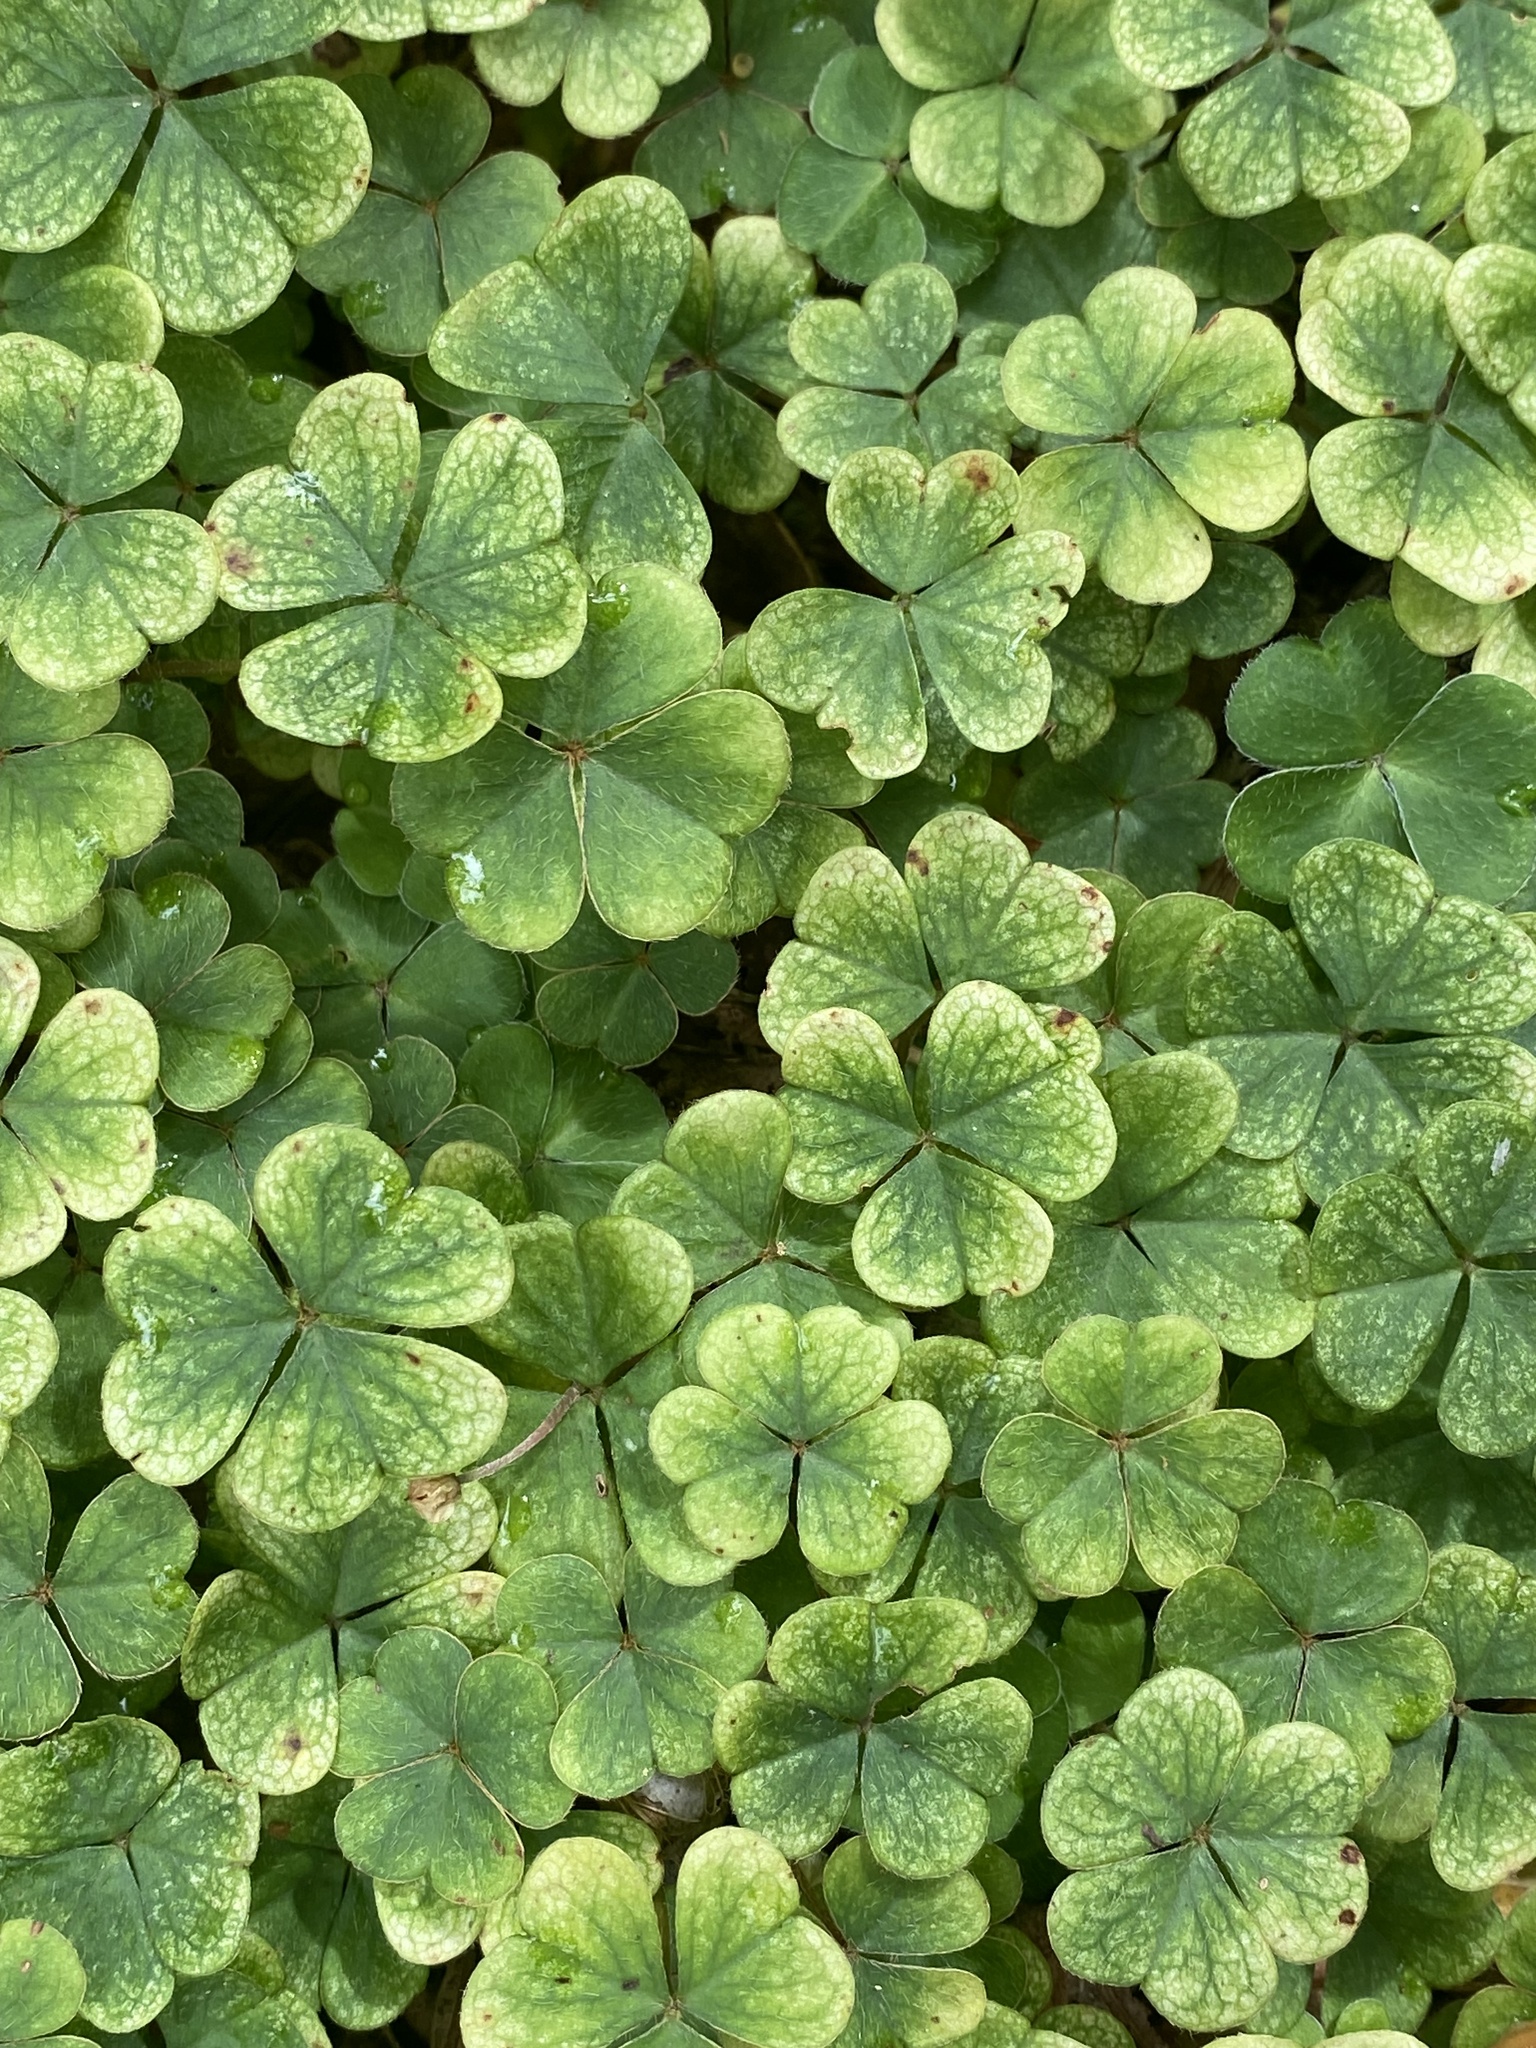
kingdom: Plantae
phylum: Tracheophyta
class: Magnoliopsida
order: Oxalidales
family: Oxalidaceae
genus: Oxalis
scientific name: Oxalis montana
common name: American wood-sorrel
